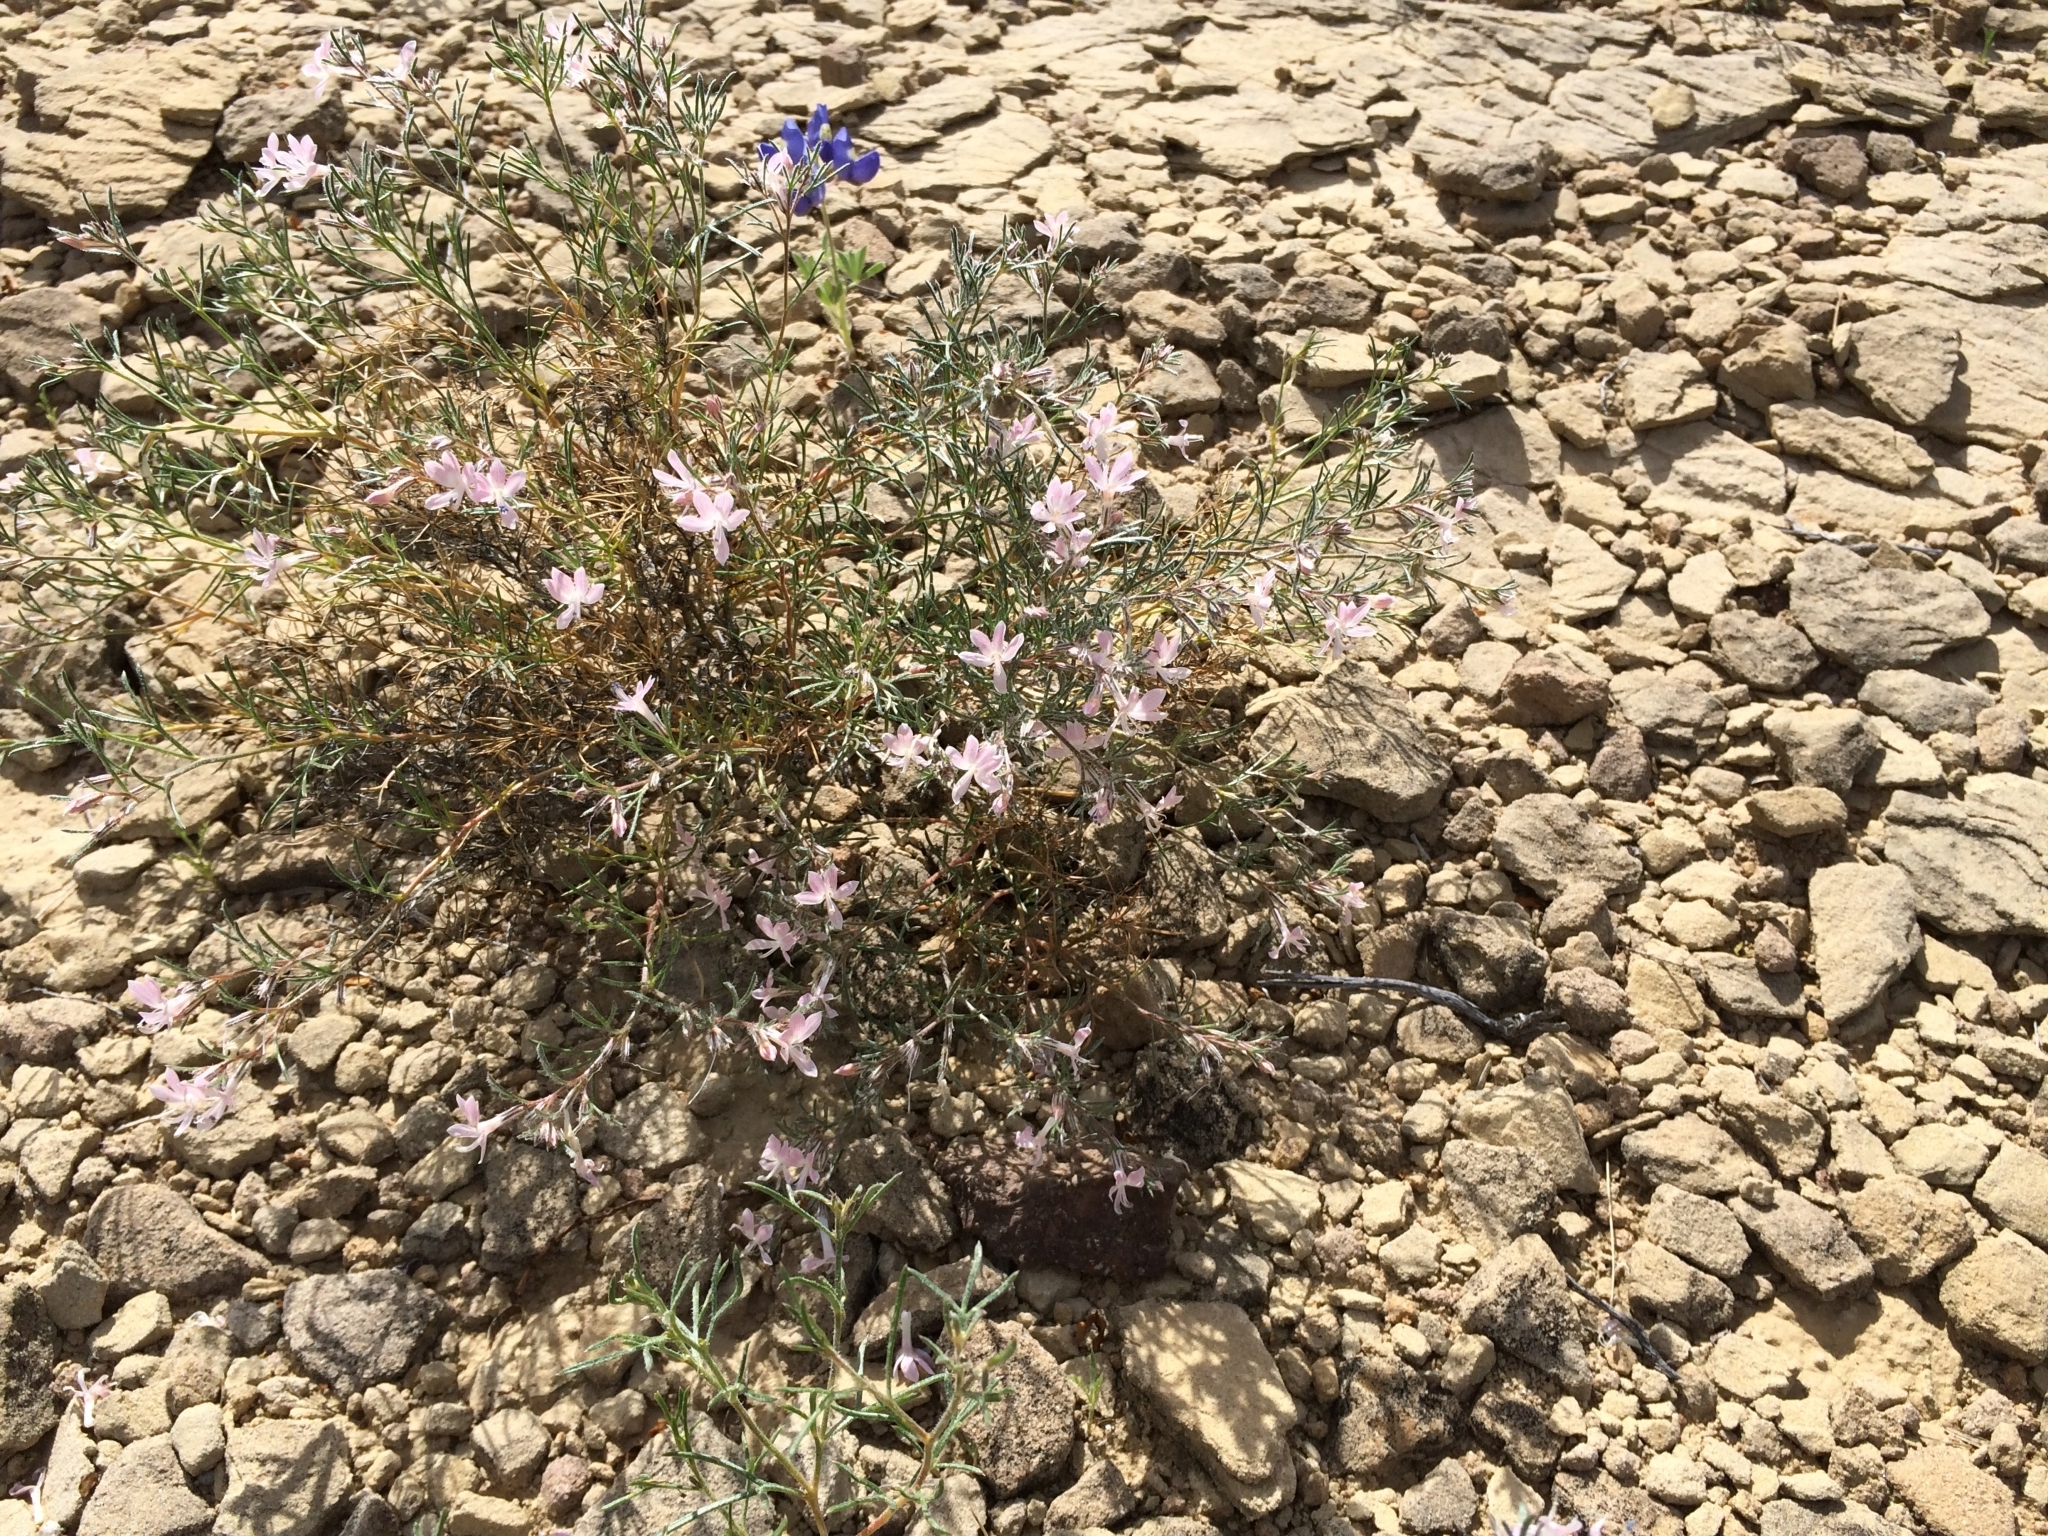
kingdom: Plantae
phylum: Tracheophyta
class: Magnoliopsida
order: Ericales
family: Polemoniaceae
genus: Dayia
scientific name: Dayia havardii
